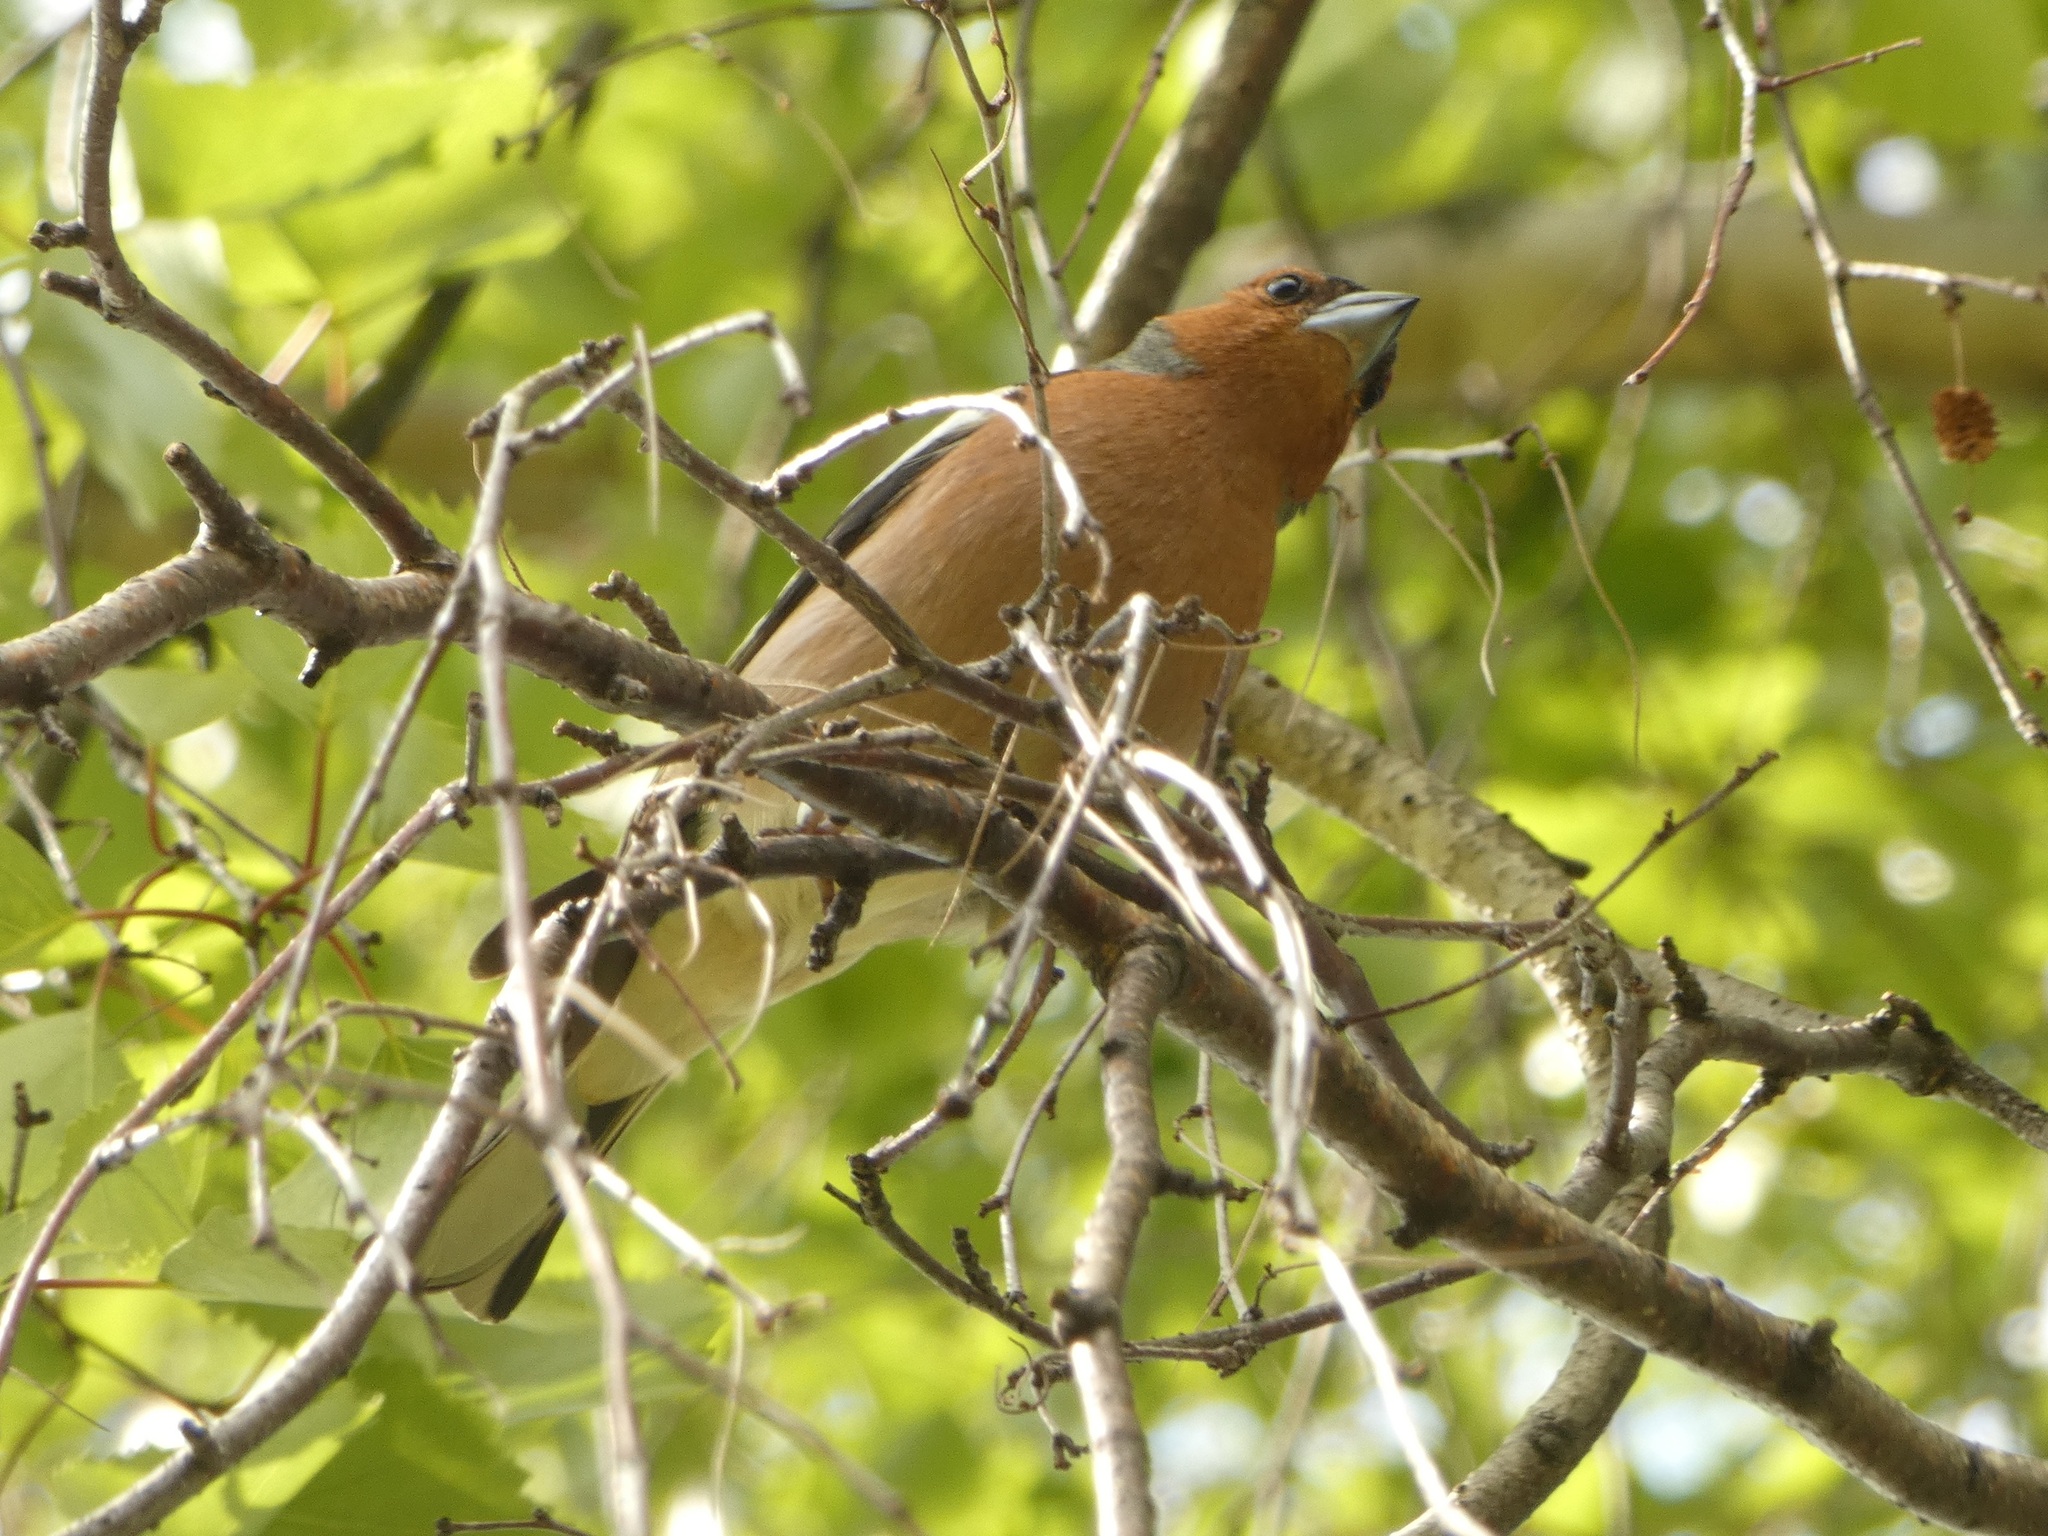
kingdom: Animalia
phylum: Chordata
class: Aves
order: Passeriformes
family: Fringillidae
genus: Fringilla
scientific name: Fringilla coelebs
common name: Common chaffinch
